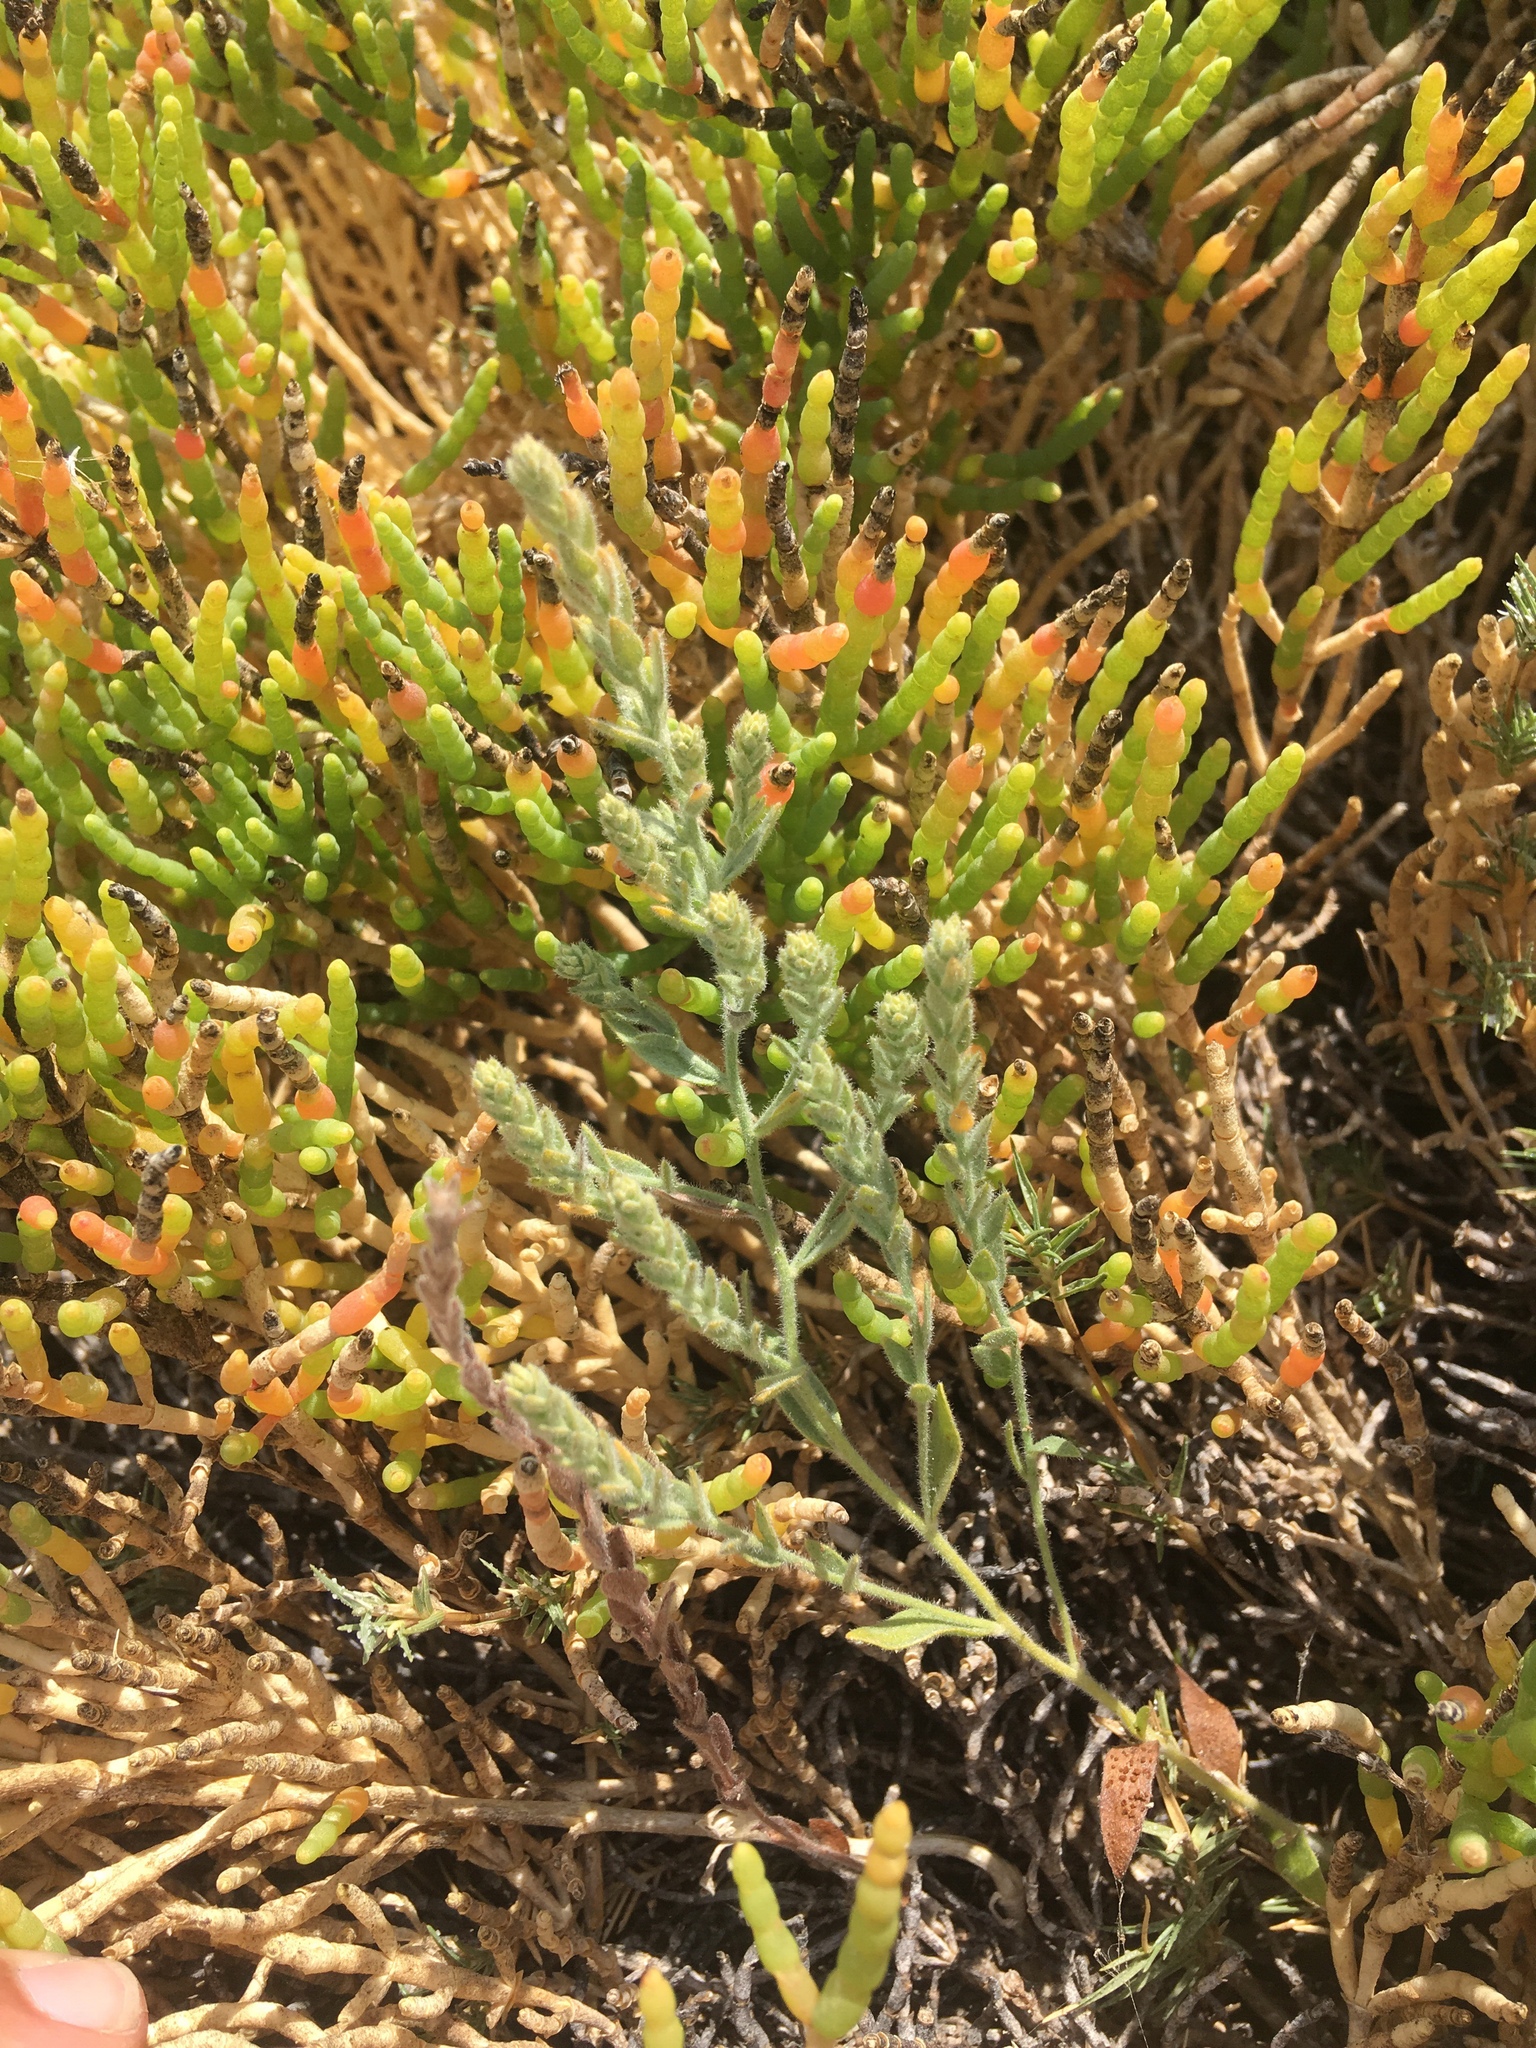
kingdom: Plantae
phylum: Tracheophyta
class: Magnoliopsida
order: Solanales
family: Convolvulaceae
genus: Cressa
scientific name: Cressa truxillensis
